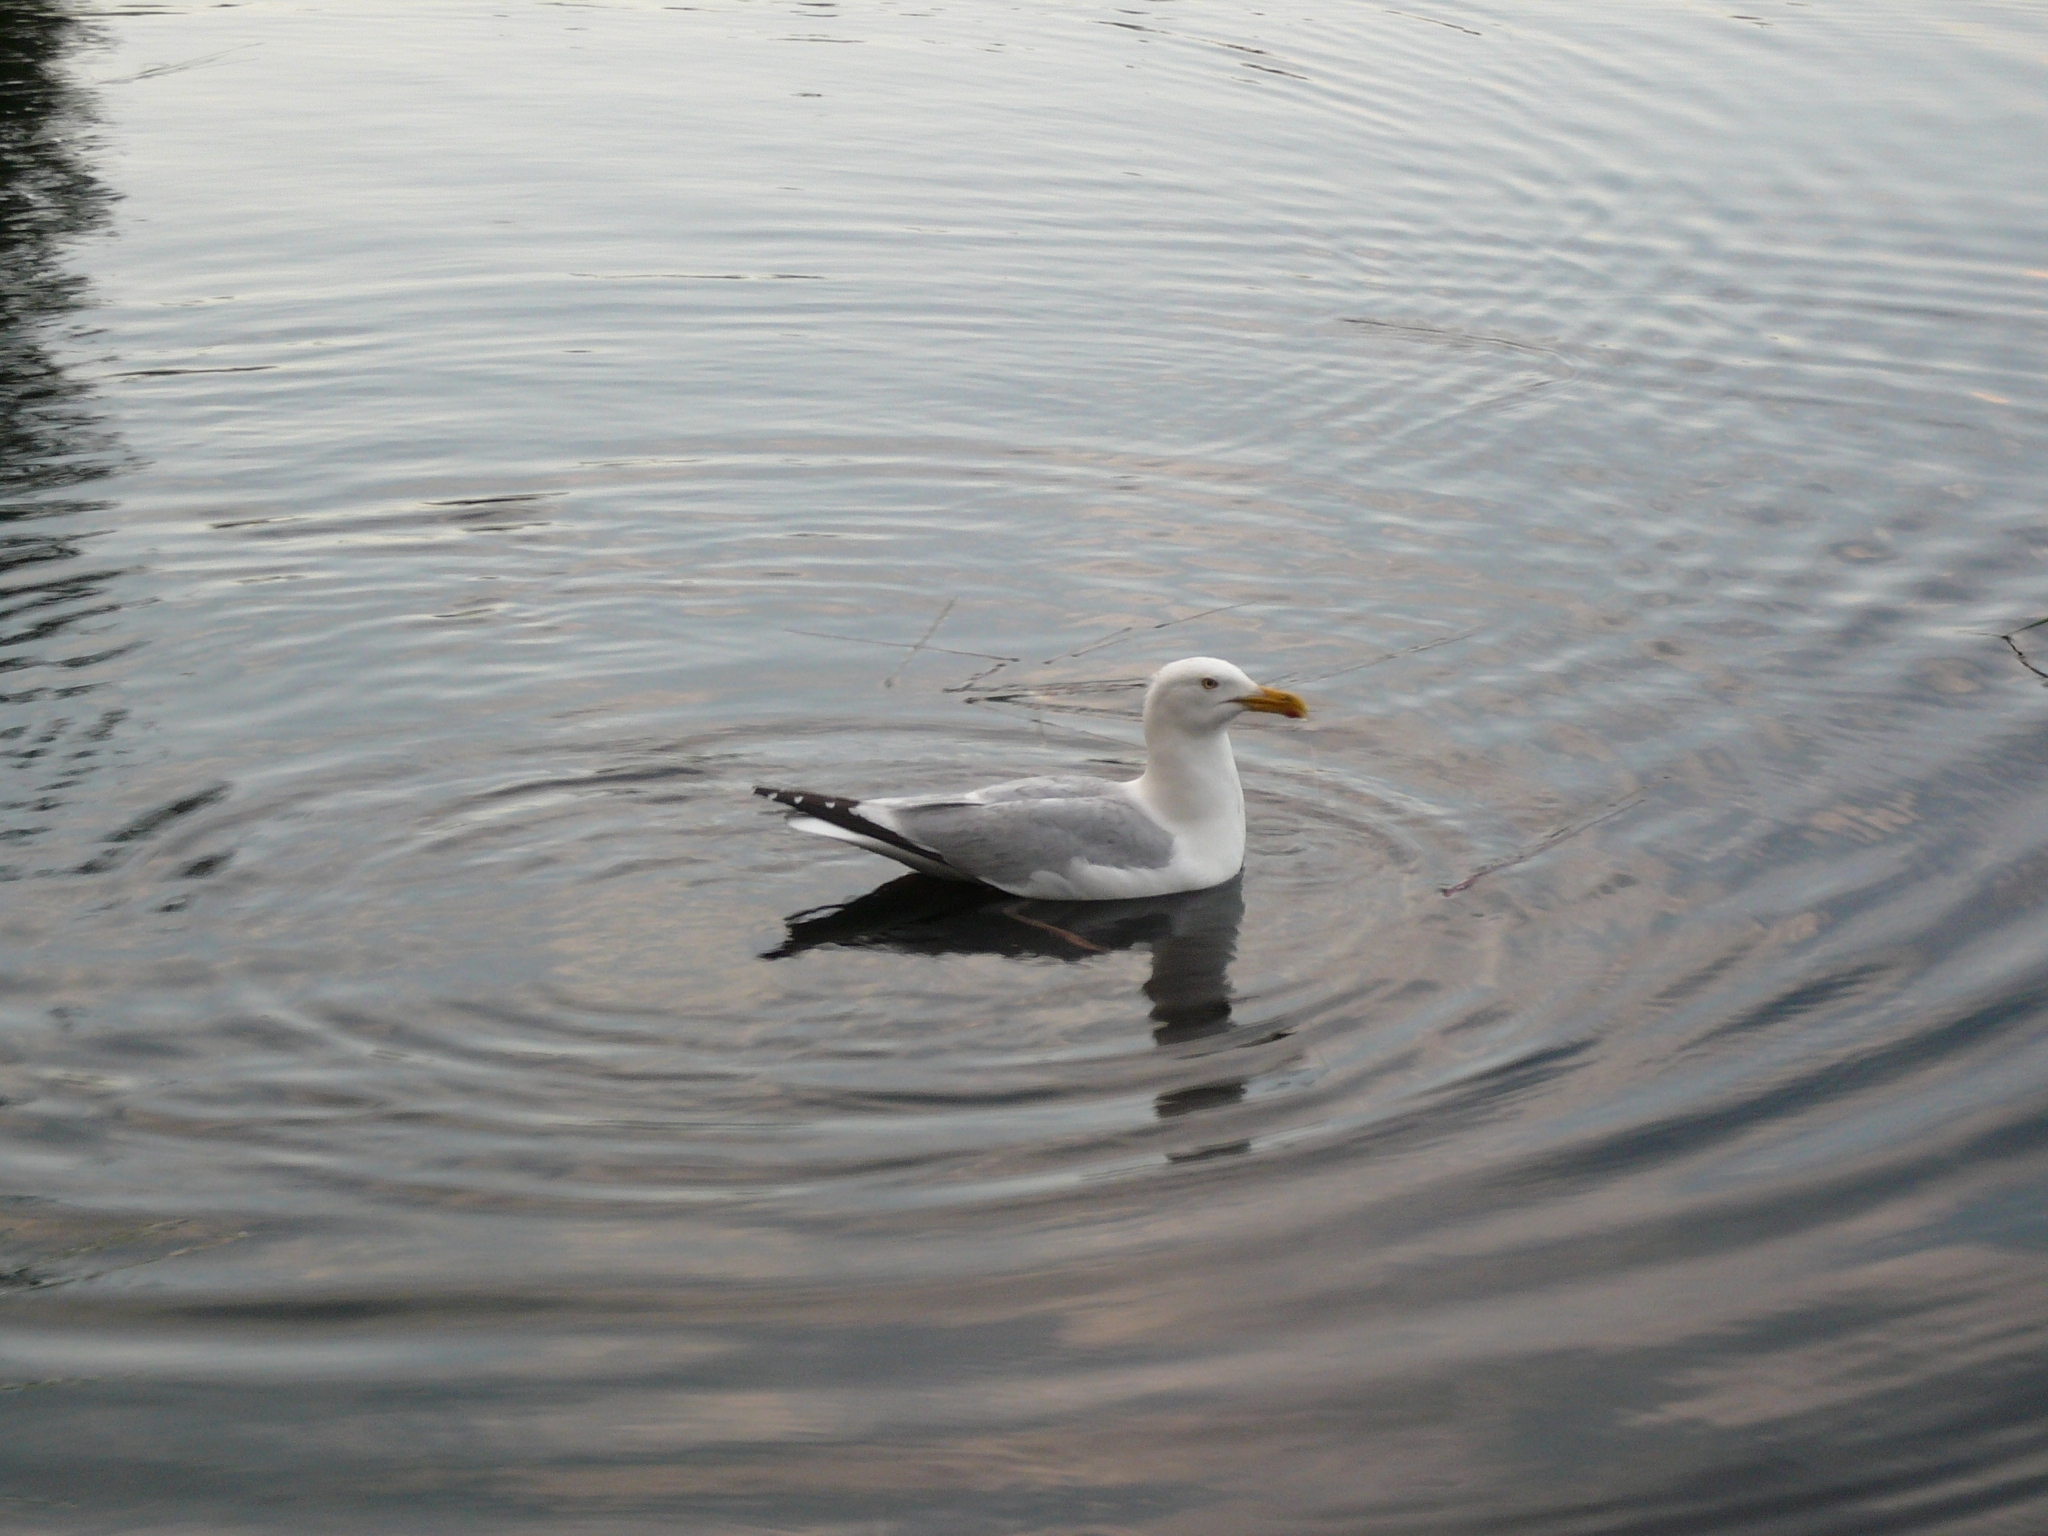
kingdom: Animalia
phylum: Chordata
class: Aves
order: Charadriiformes
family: Laridae
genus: Larus
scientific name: Larus argentatus
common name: Herring gull
